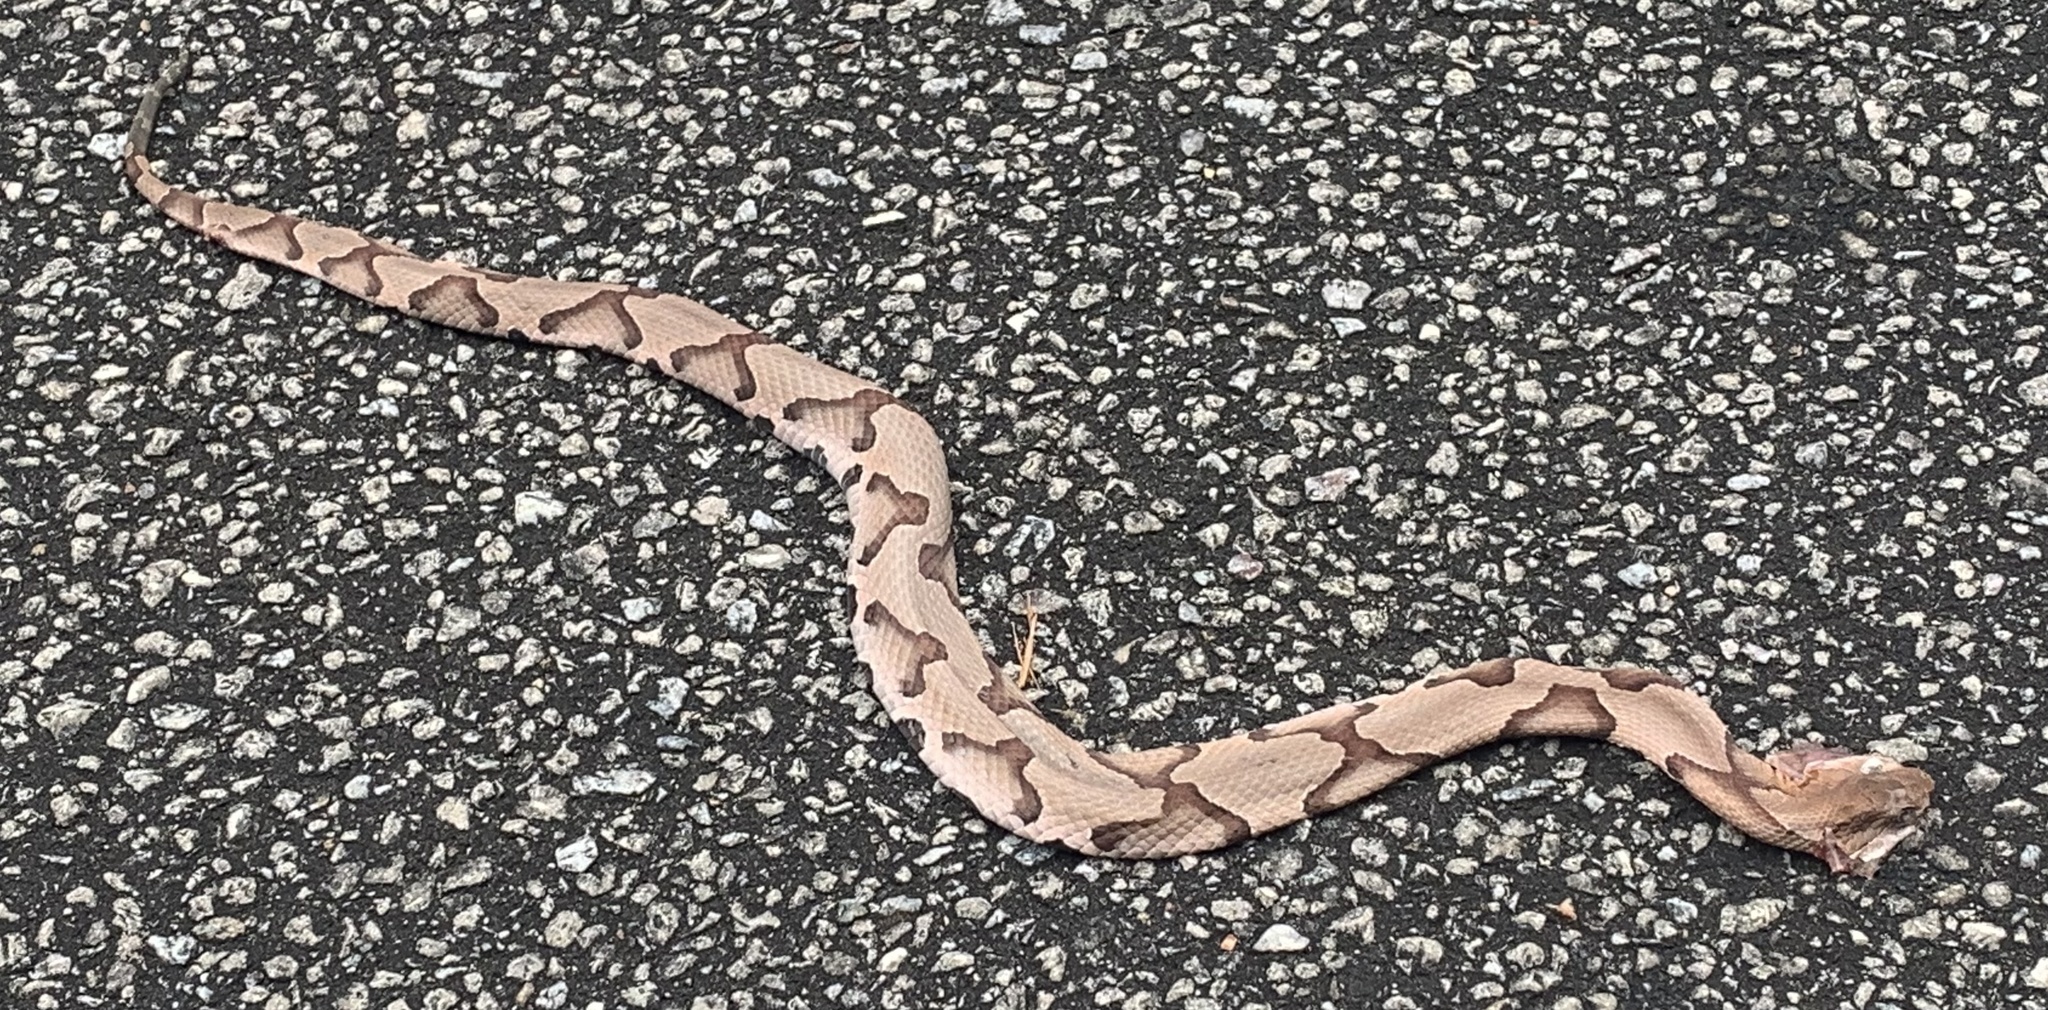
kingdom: Animalia
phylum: Chordata
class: Squamata
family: Viperidae
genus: Agkistrodon
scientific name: Agkistrodon contortrix
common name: Northern copperhead
